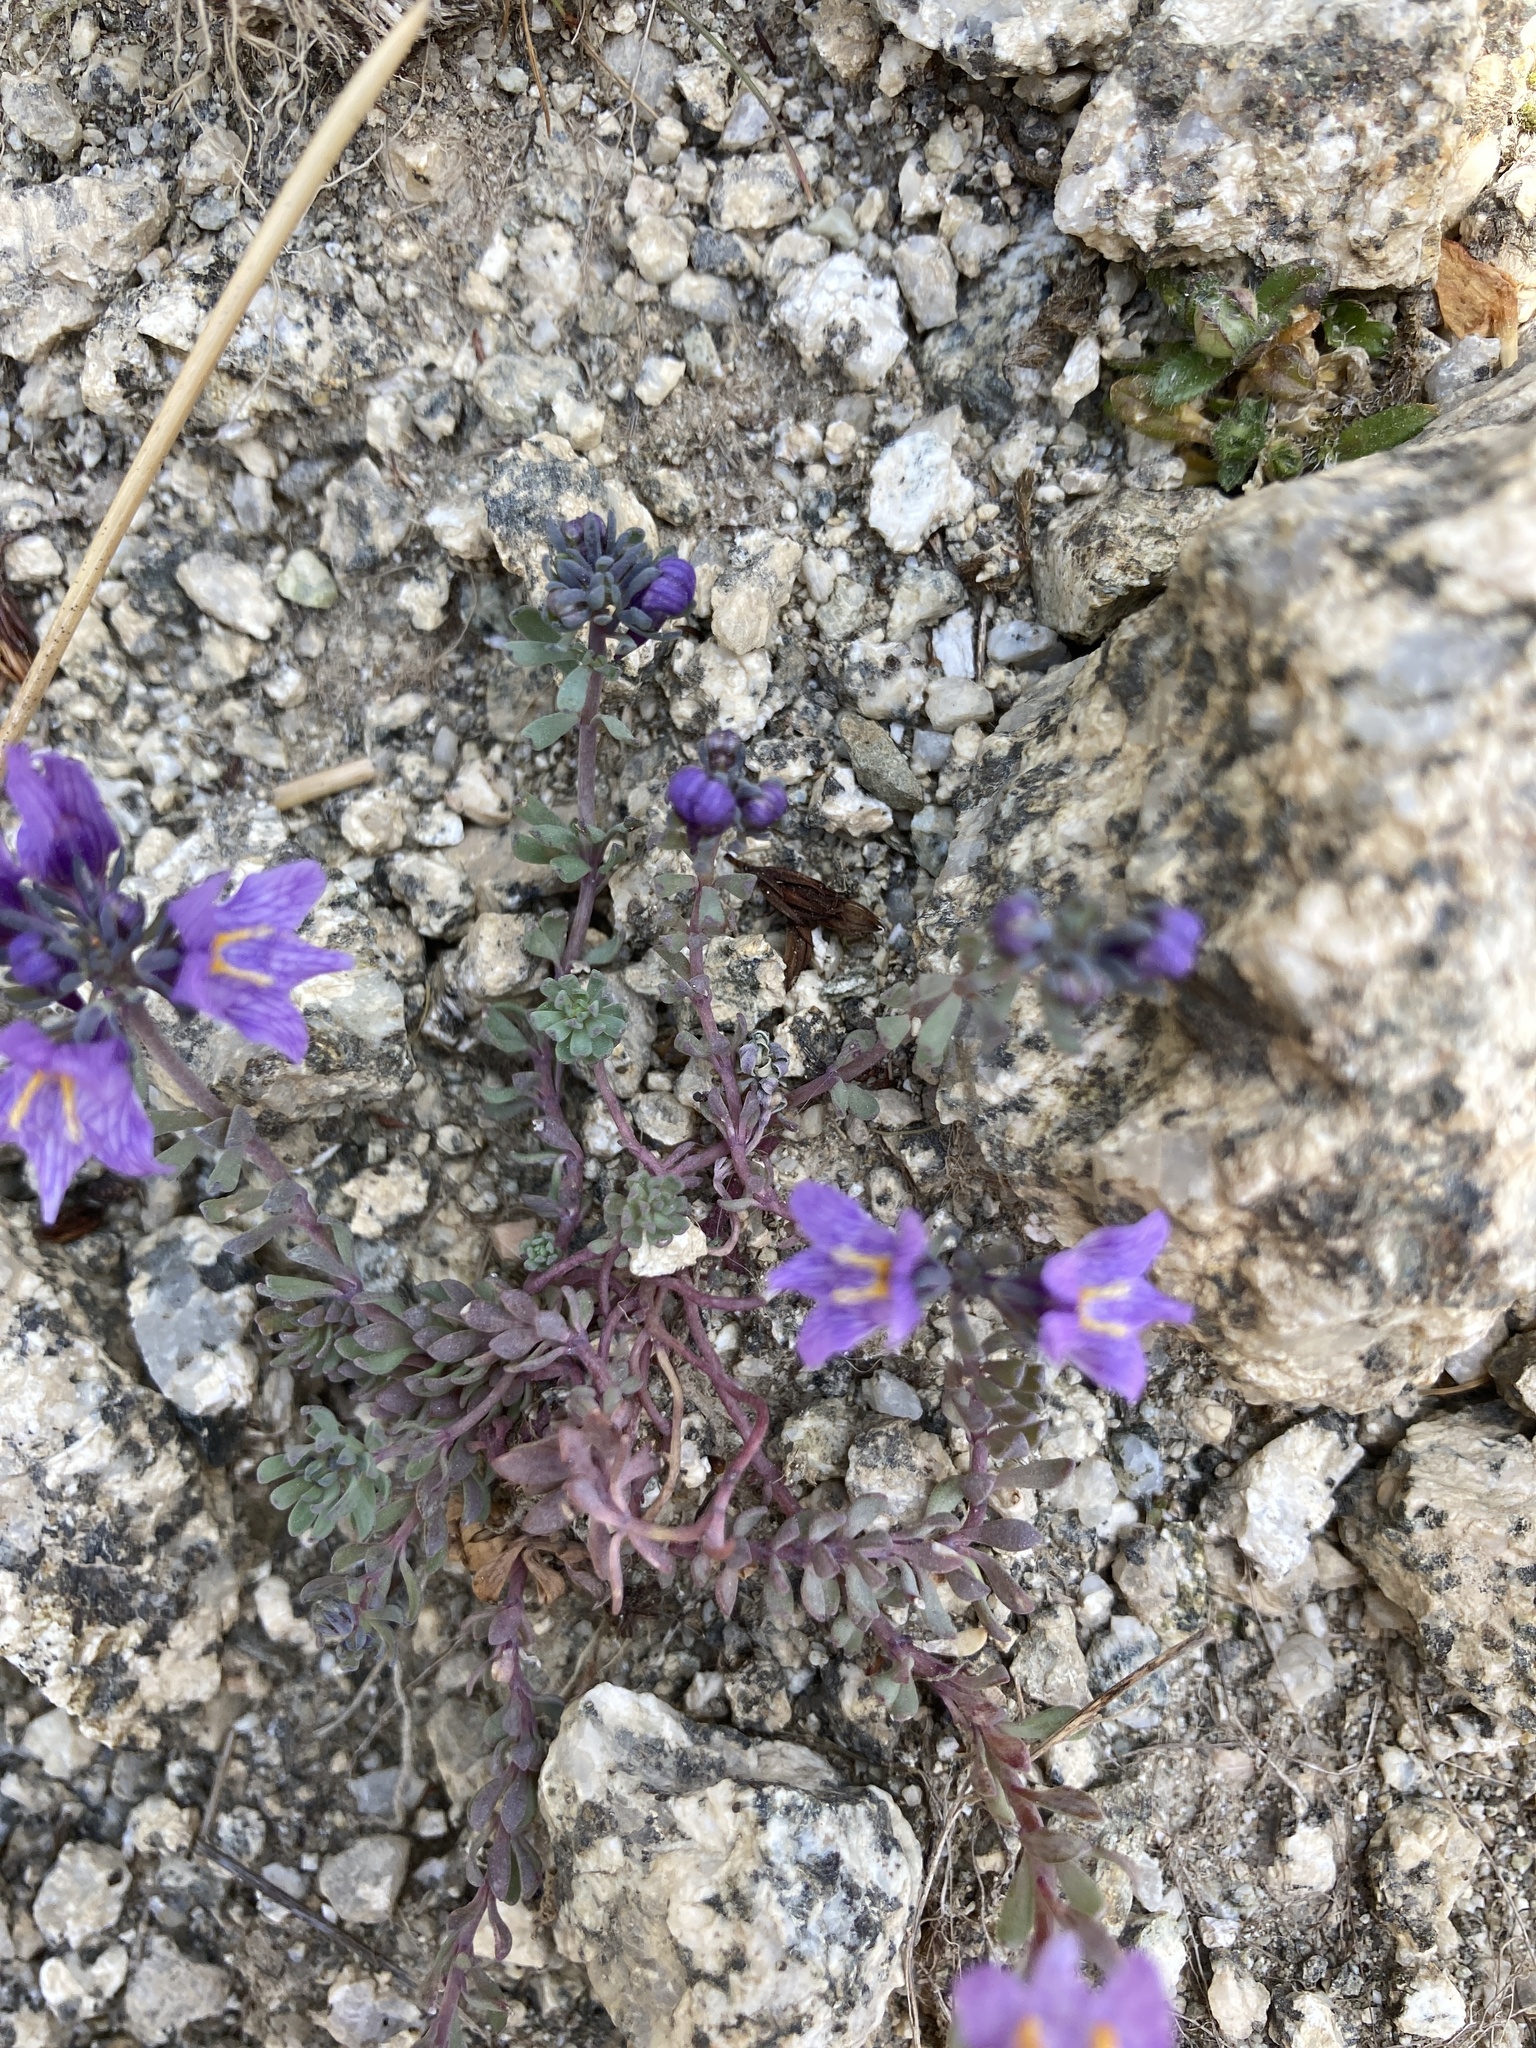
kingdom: Plantae
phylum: Tracheophyta
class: Magnoliopsida
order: Lamiales
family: Plantaginaceae
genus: Linaria
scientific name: Linaria alpina
